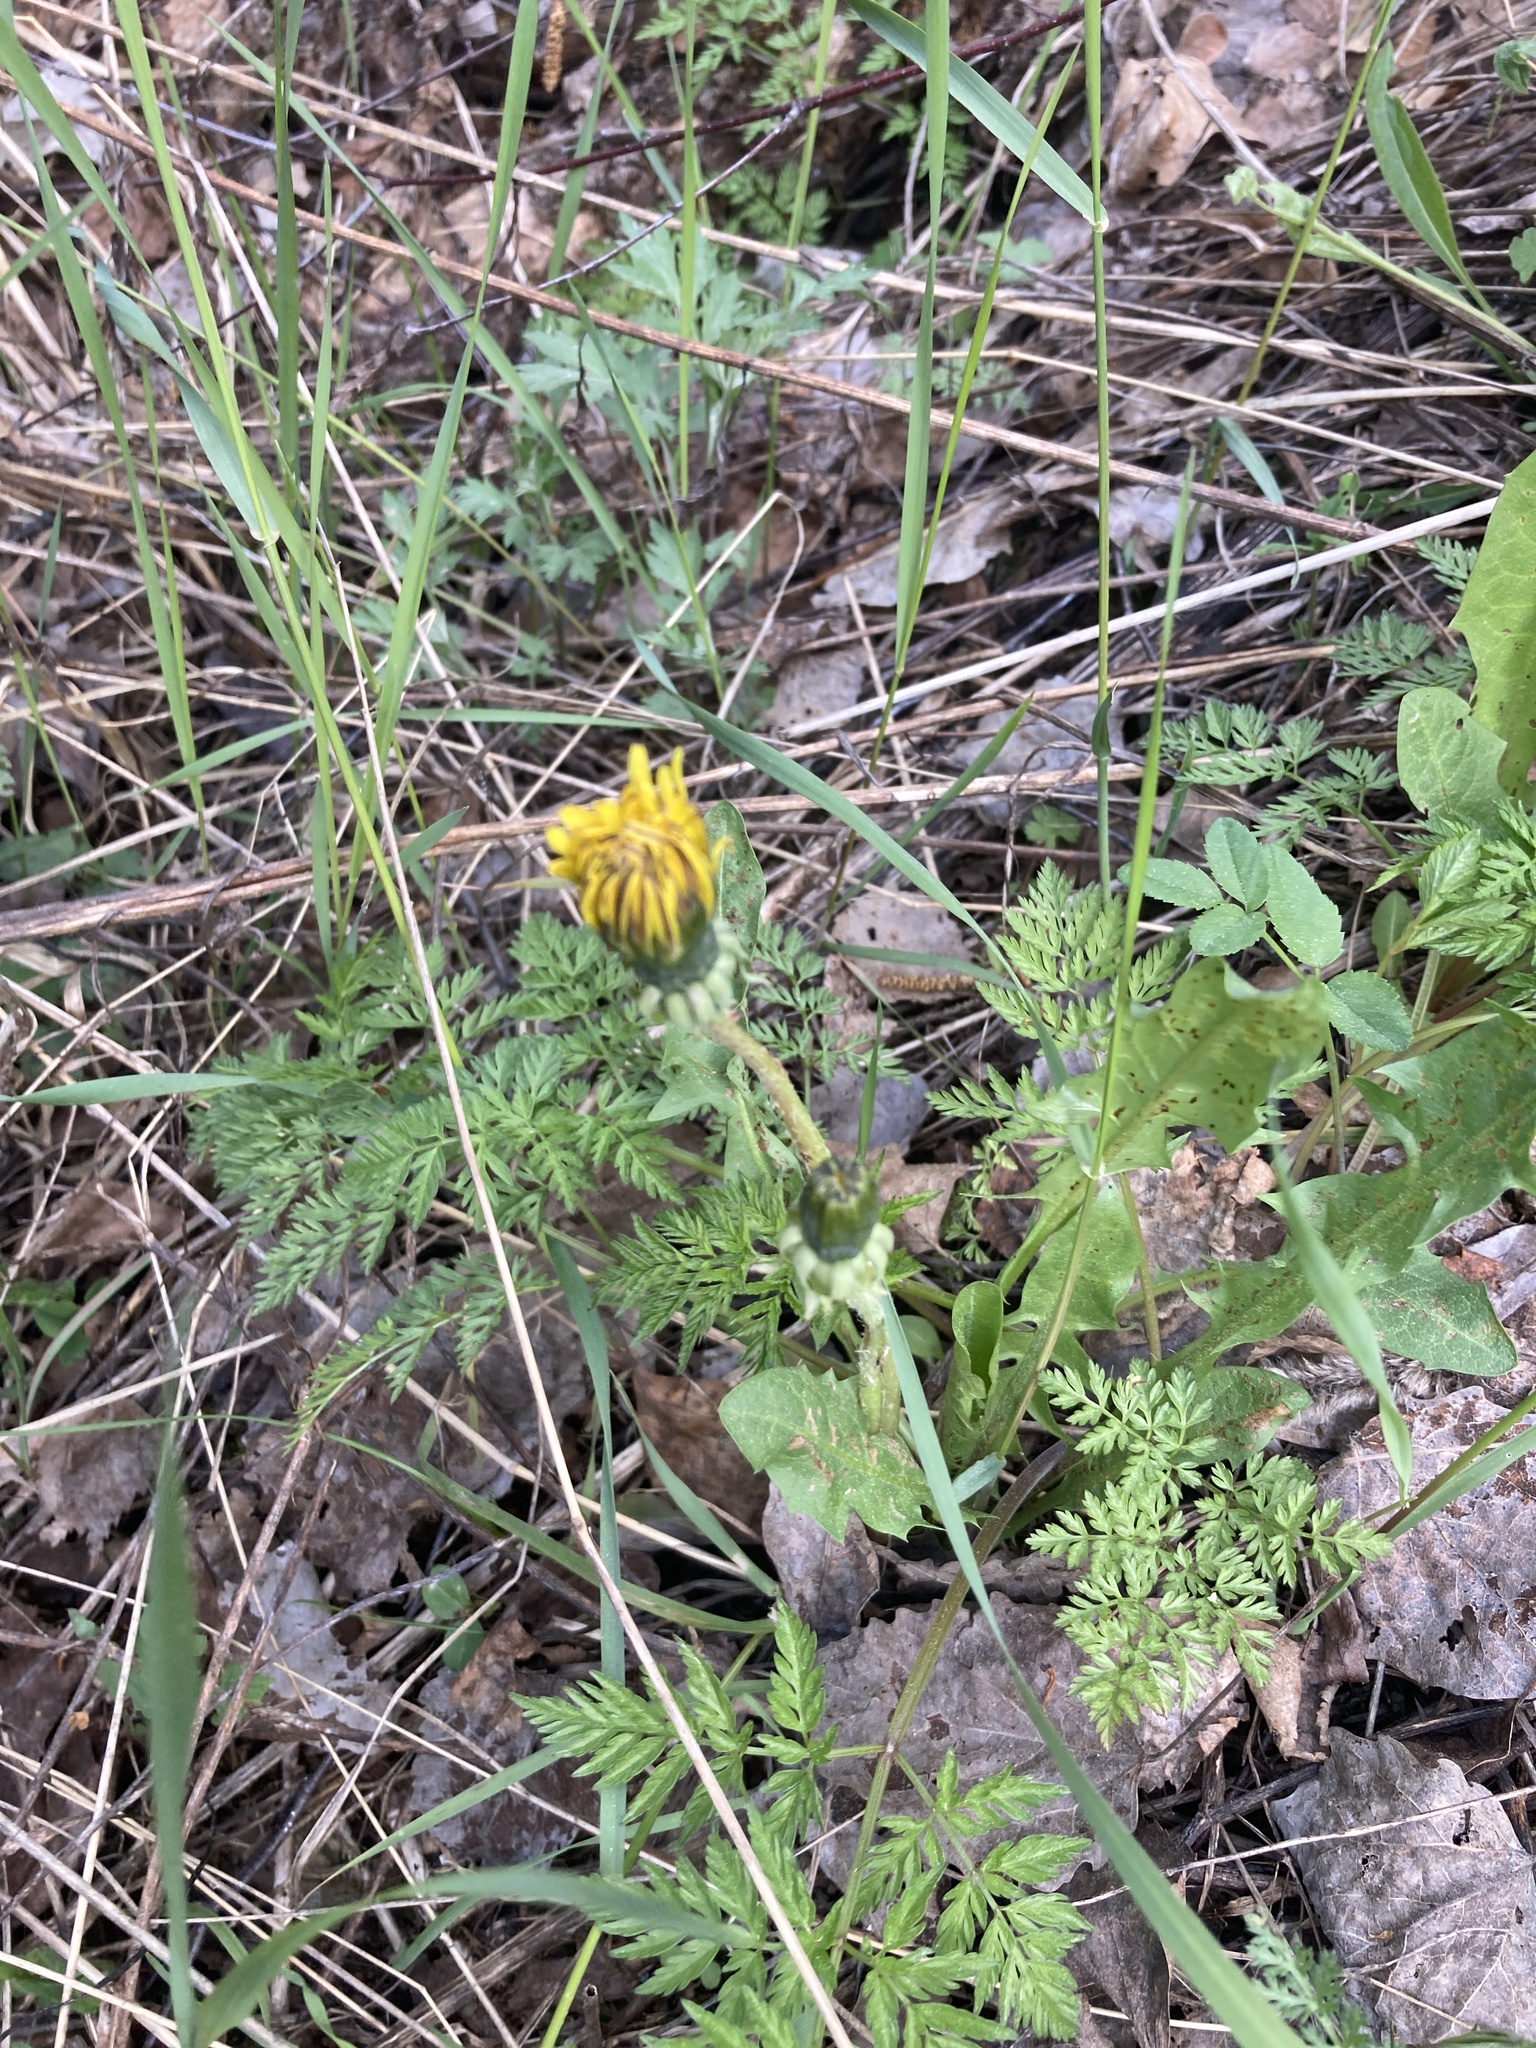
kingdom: Plantae
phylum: Tracheophyta
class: Magnoliopsida
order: Asterales
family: Asteraceae
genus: Taraxacum
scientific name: Taraxacum officinale
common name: Common dandelion
